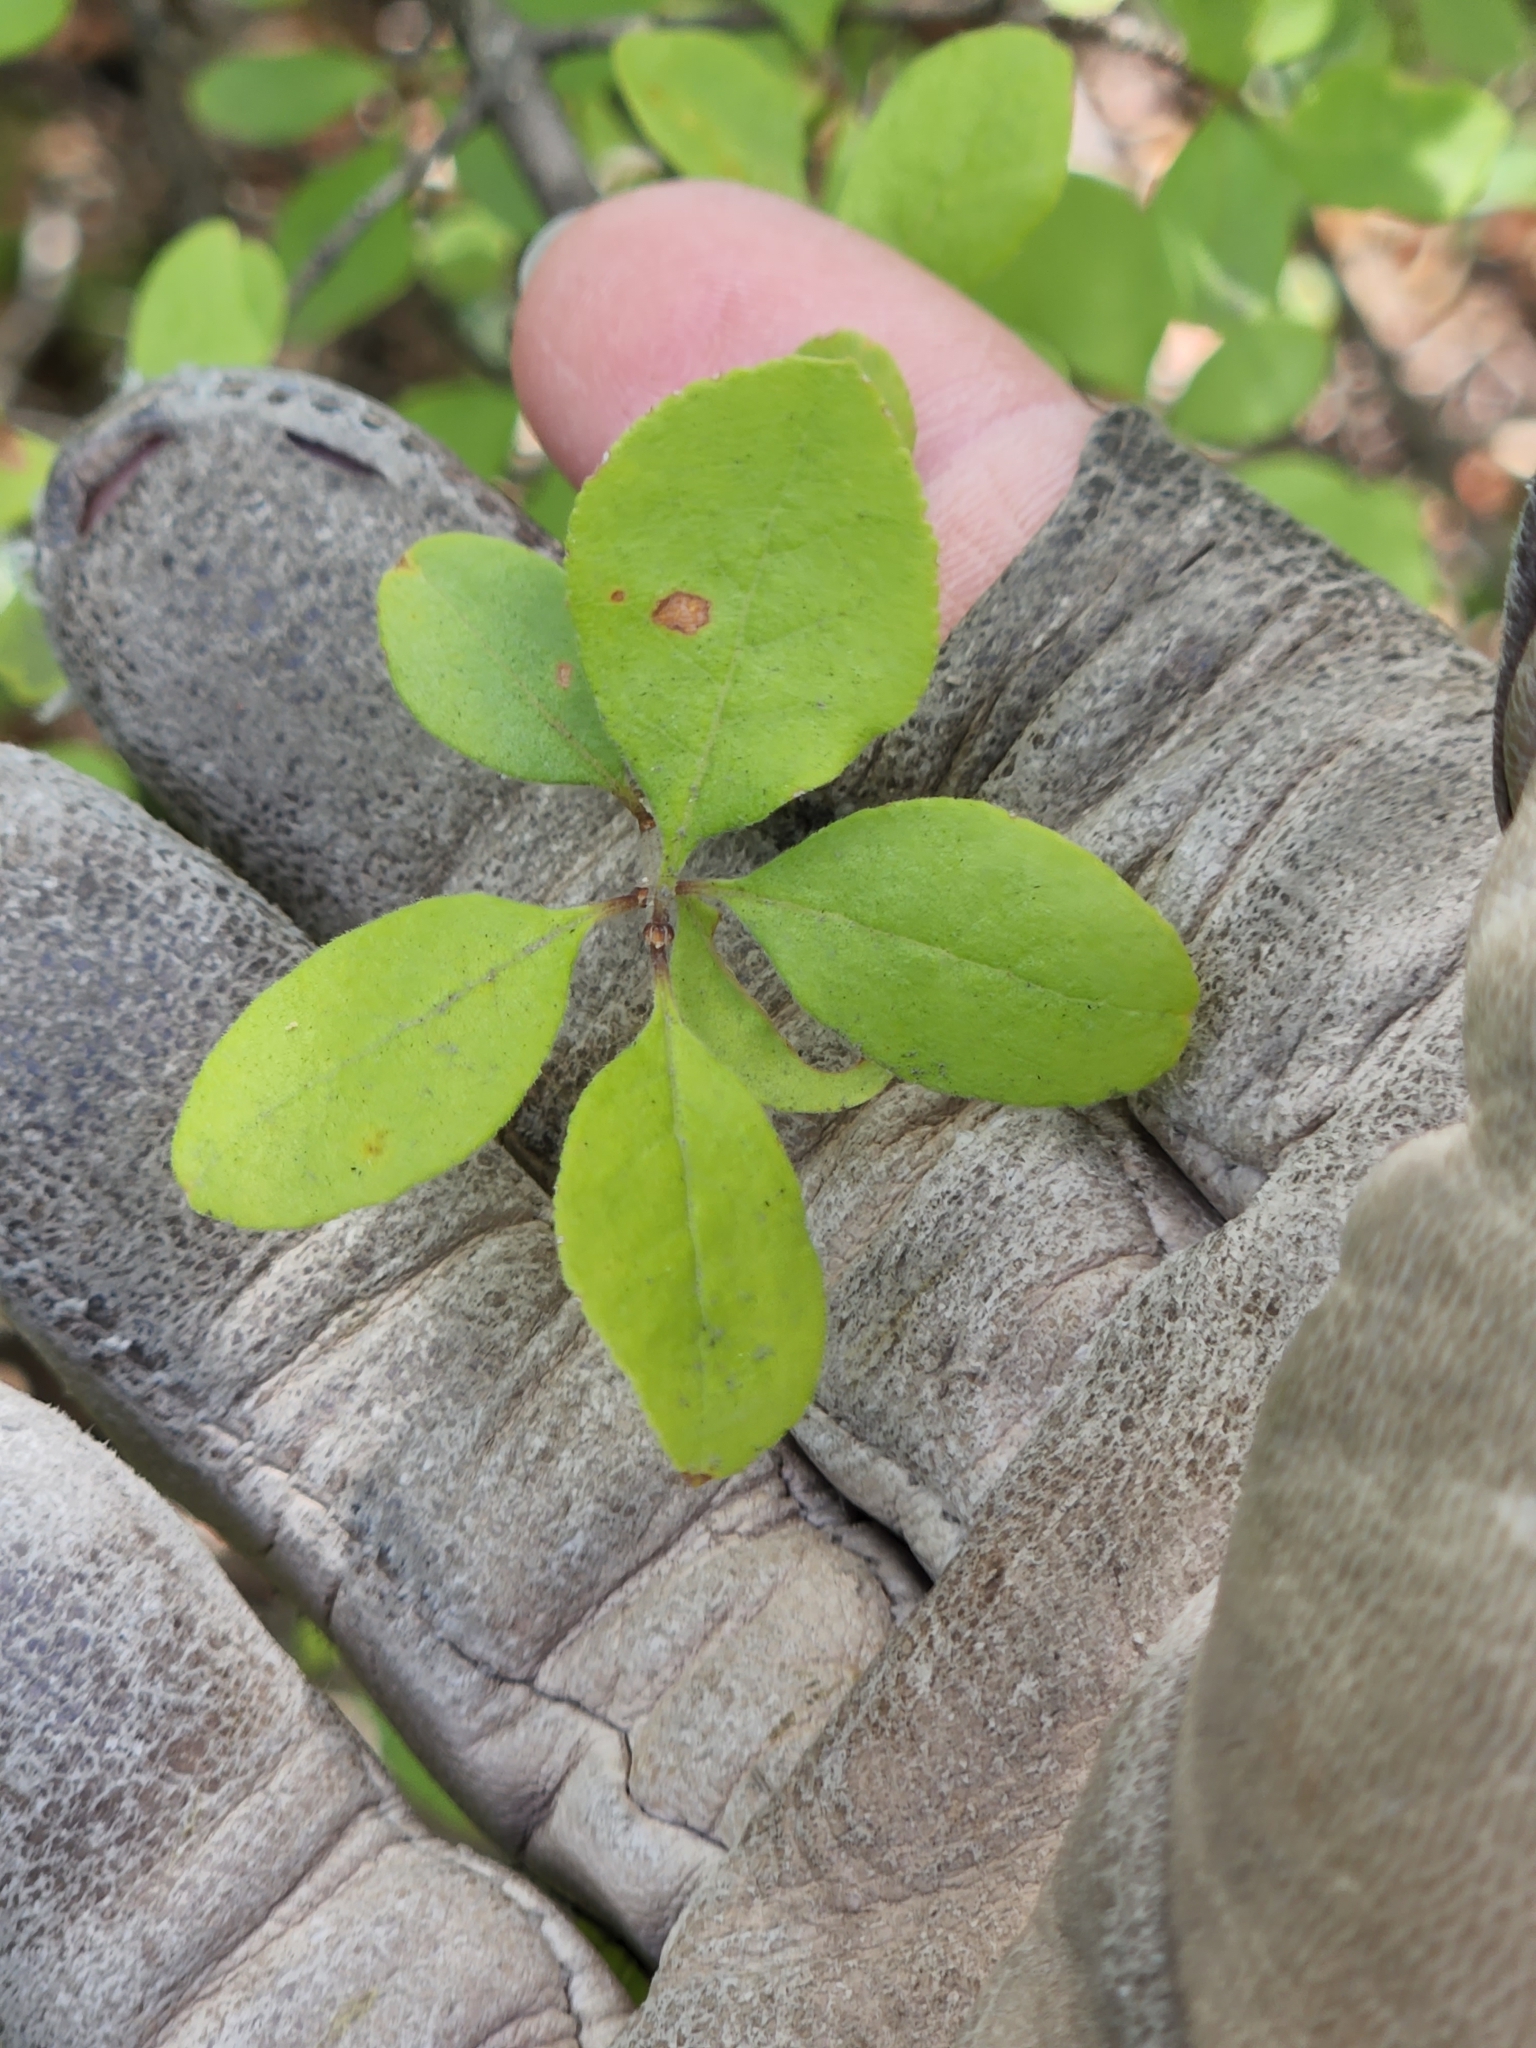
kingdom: Plantae
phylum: Tracheophyta
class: Magnoliopsida
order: Lamiales
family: Oleaceae
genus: Forestiera
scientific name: Forestiera pubescens
